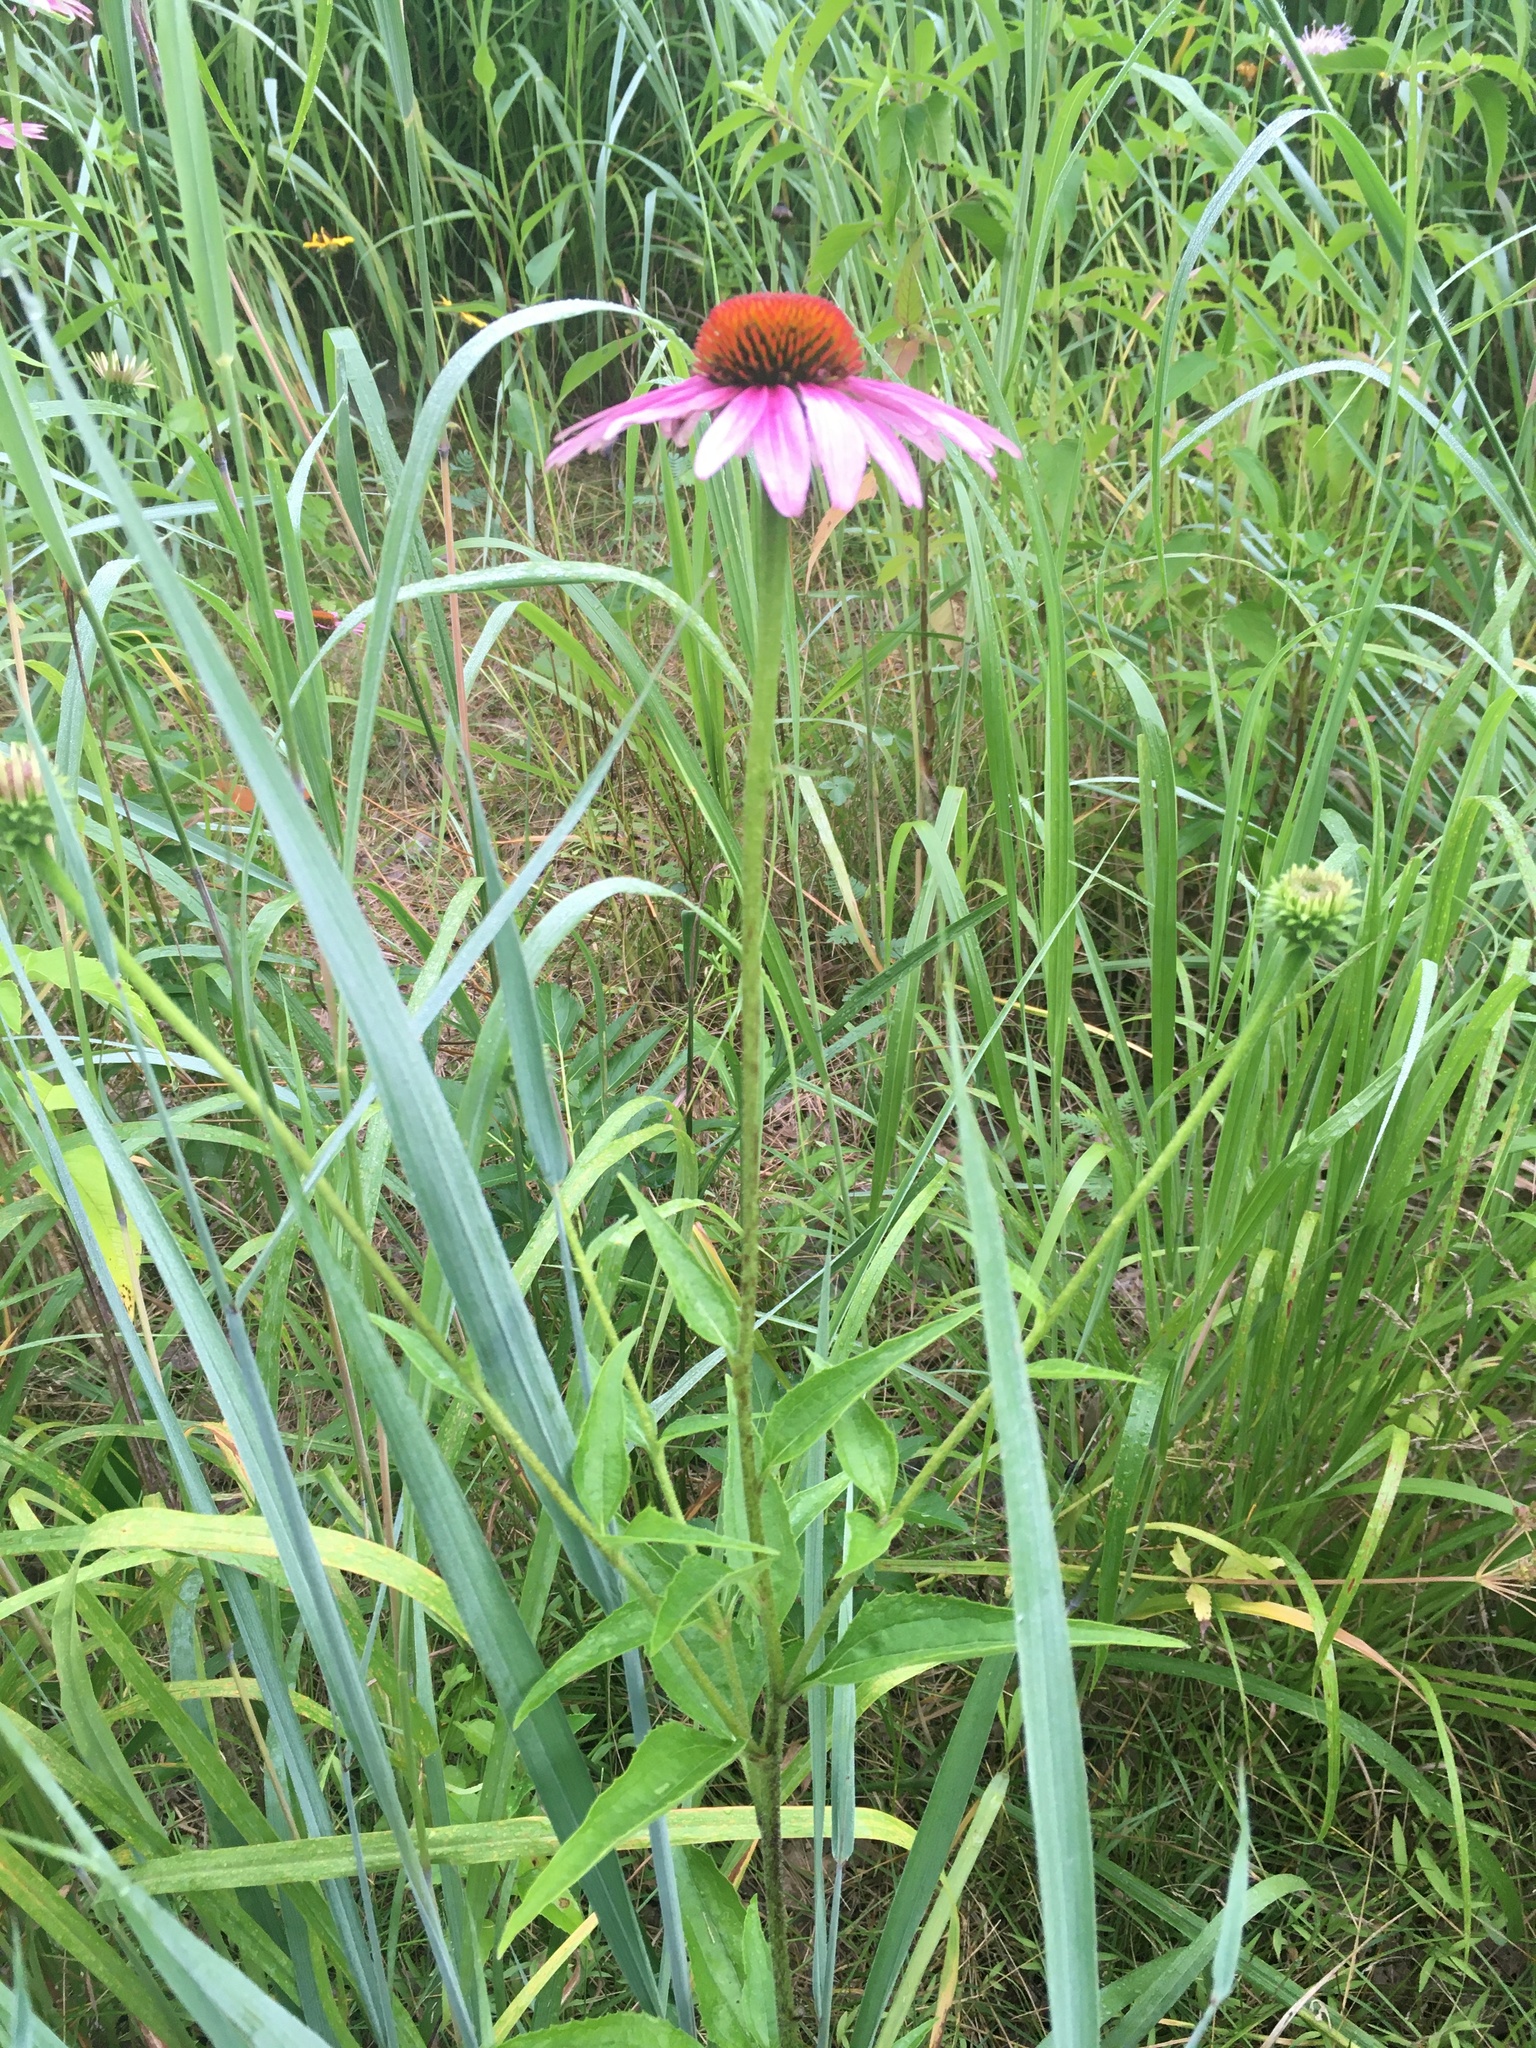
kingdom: Plantae
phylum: Tracheophyta
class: Magnoliopsida
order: Asterales
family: Asteraceae
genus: Echinacea
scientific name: Echinacea purpurea
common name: Broad-leaved purple coneflower
